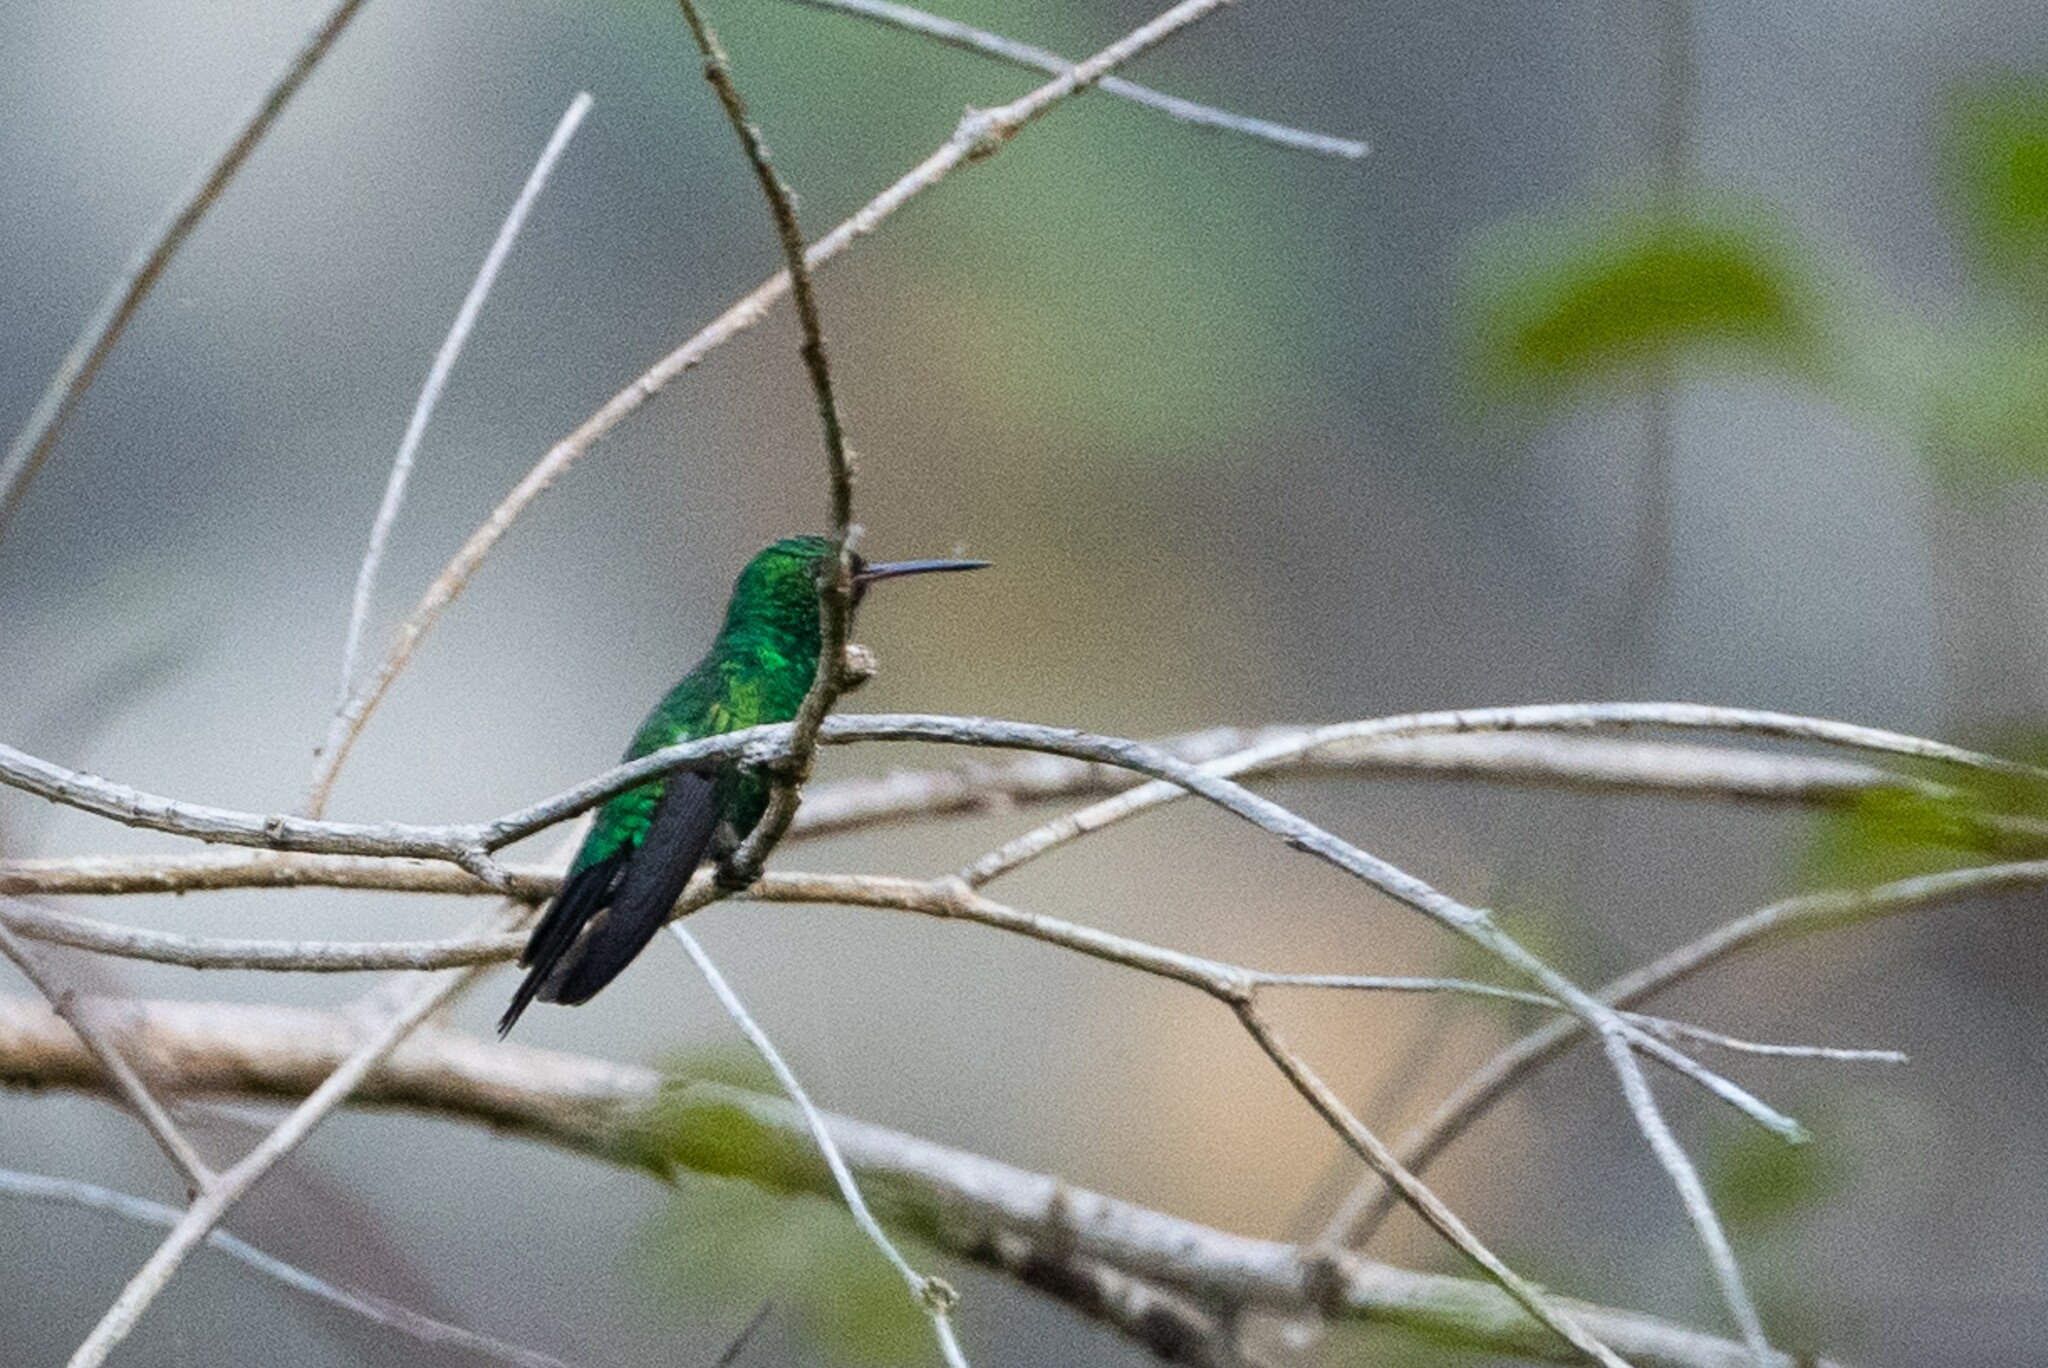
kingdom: Animalia
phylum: Chordata
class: Aves
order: Apodiformes
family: Trochilidae
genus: Cynanthus
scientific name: Cynanthus canivetii
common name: Canivet's emerald
